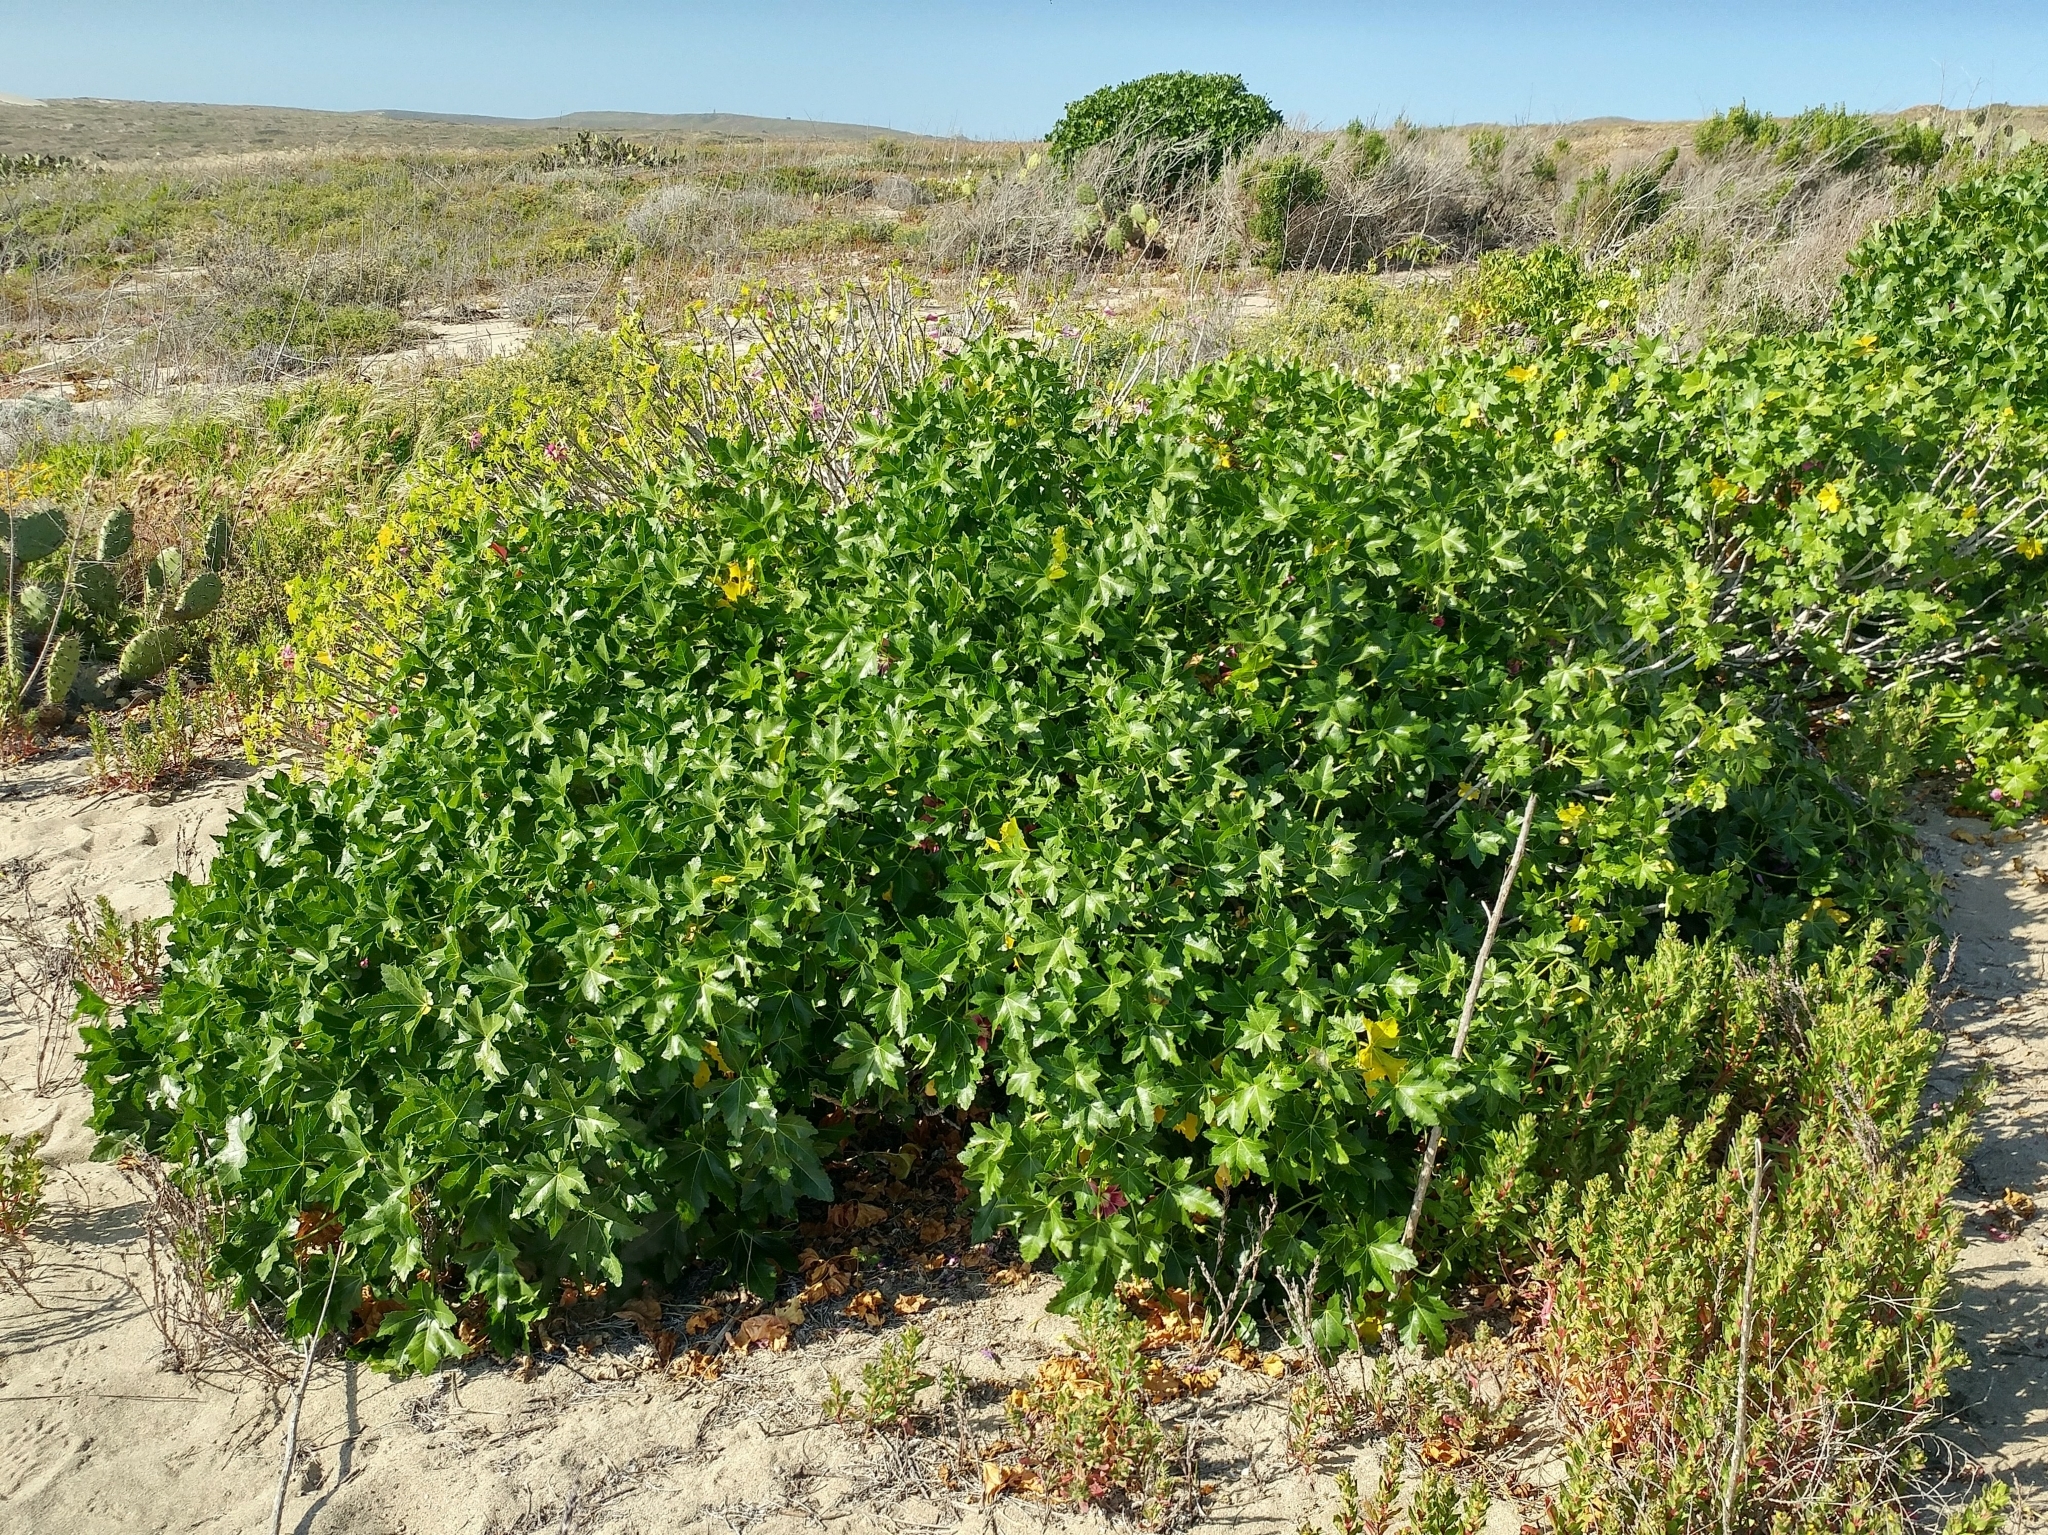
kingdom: Plantae
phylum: Tracheophyta
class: Magnoliopsida
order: Malvales
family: Malvaceae
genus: Malva
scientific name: Malva assurgentiflora
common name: Island mallow
